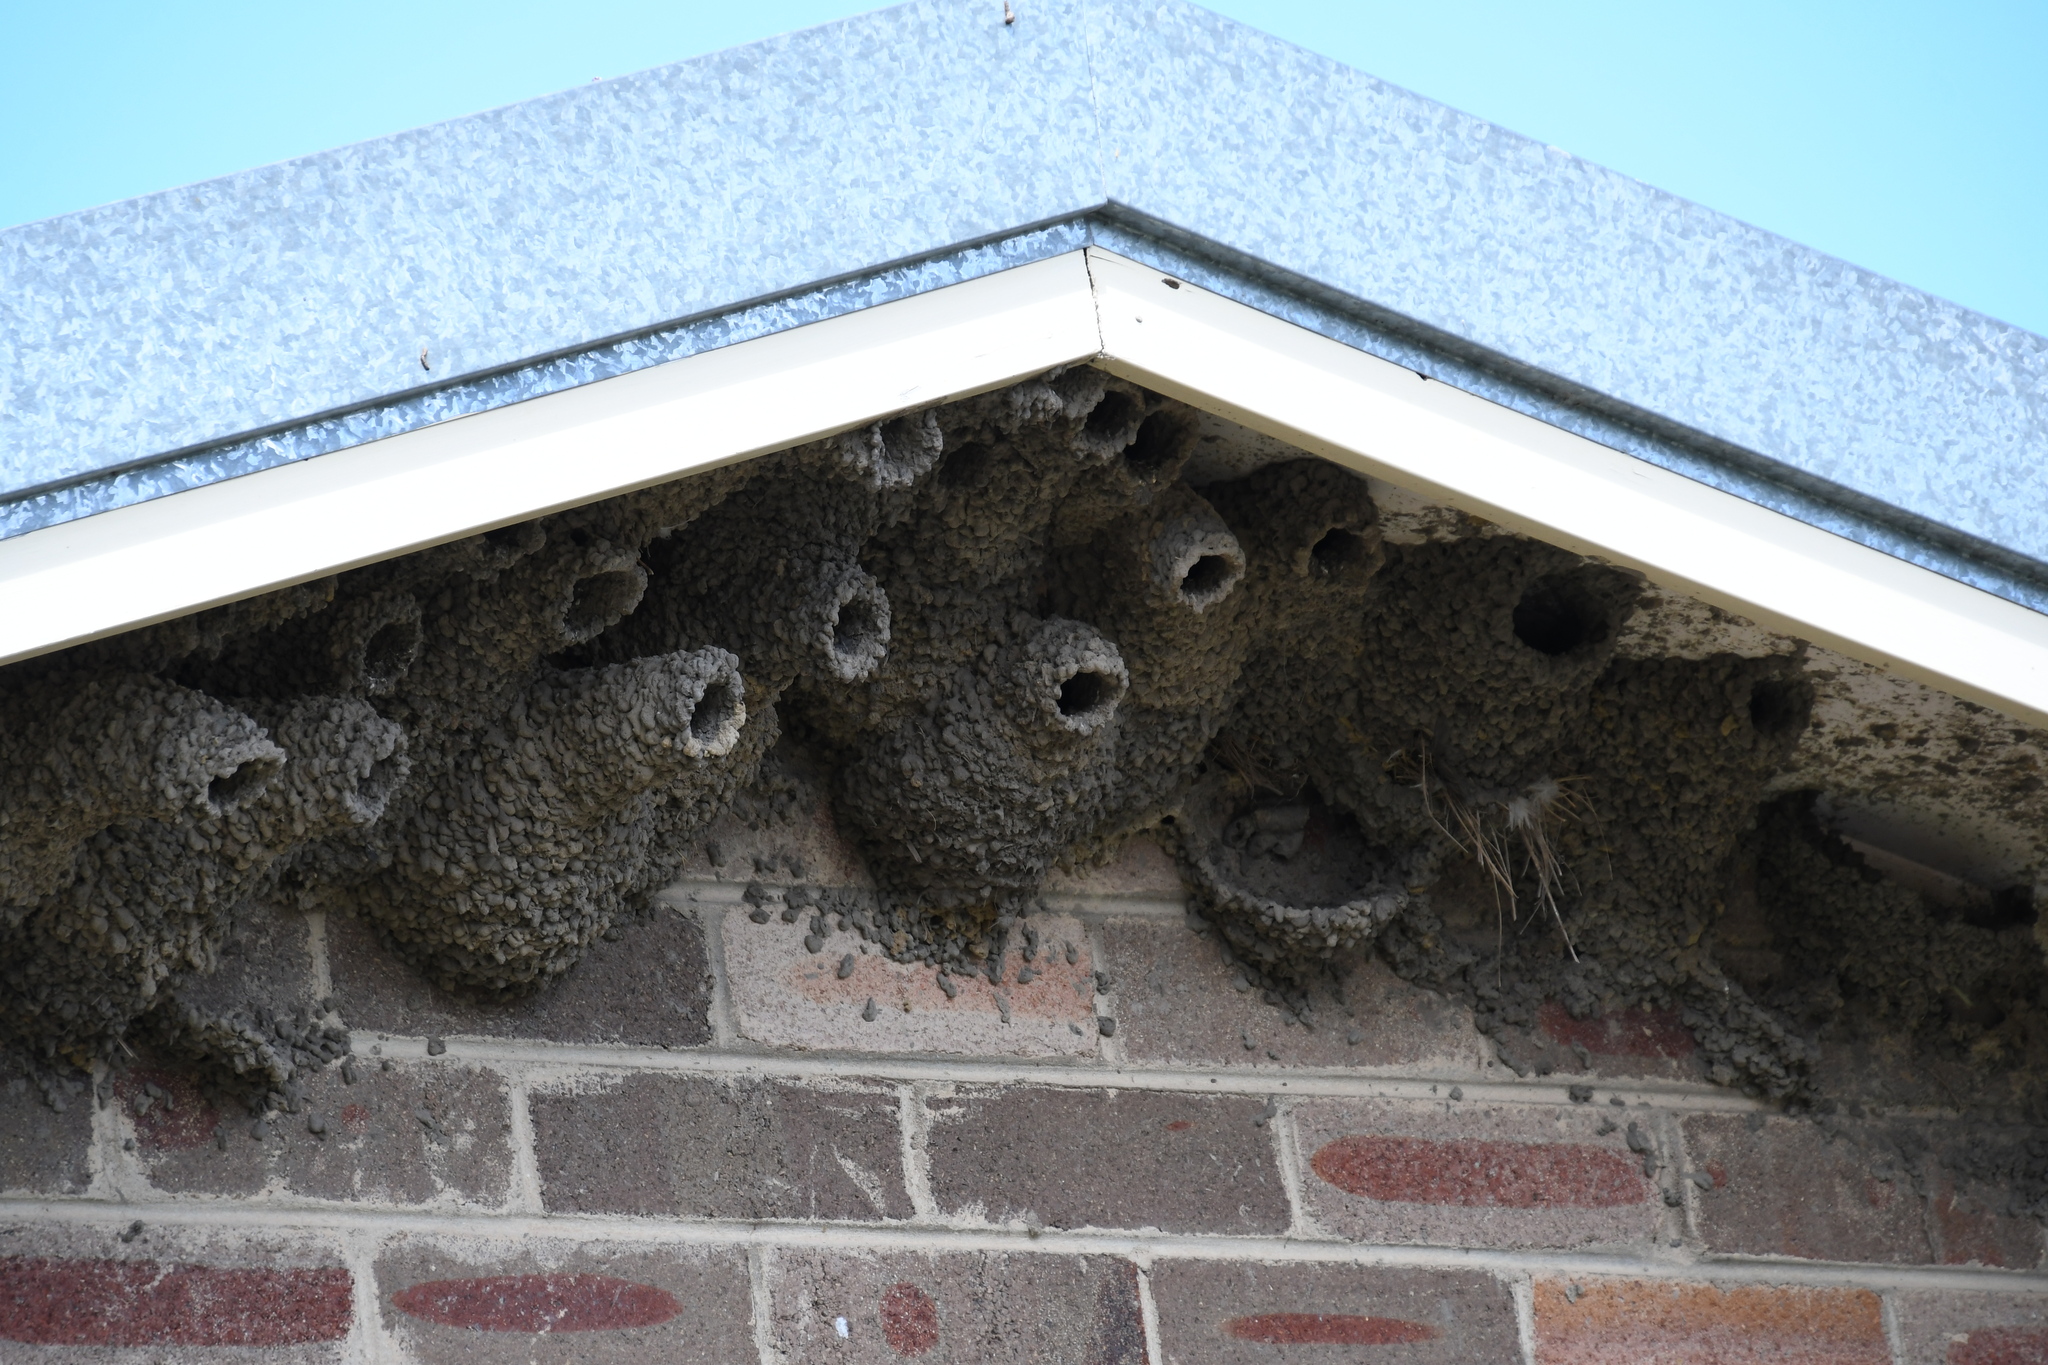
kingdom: Animalia
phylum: Chordata
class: Aves
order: Passeriformes
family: Hirundinidae
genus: Petrochelidon
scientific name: Petrochelidon ariel
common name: Fairy martin
